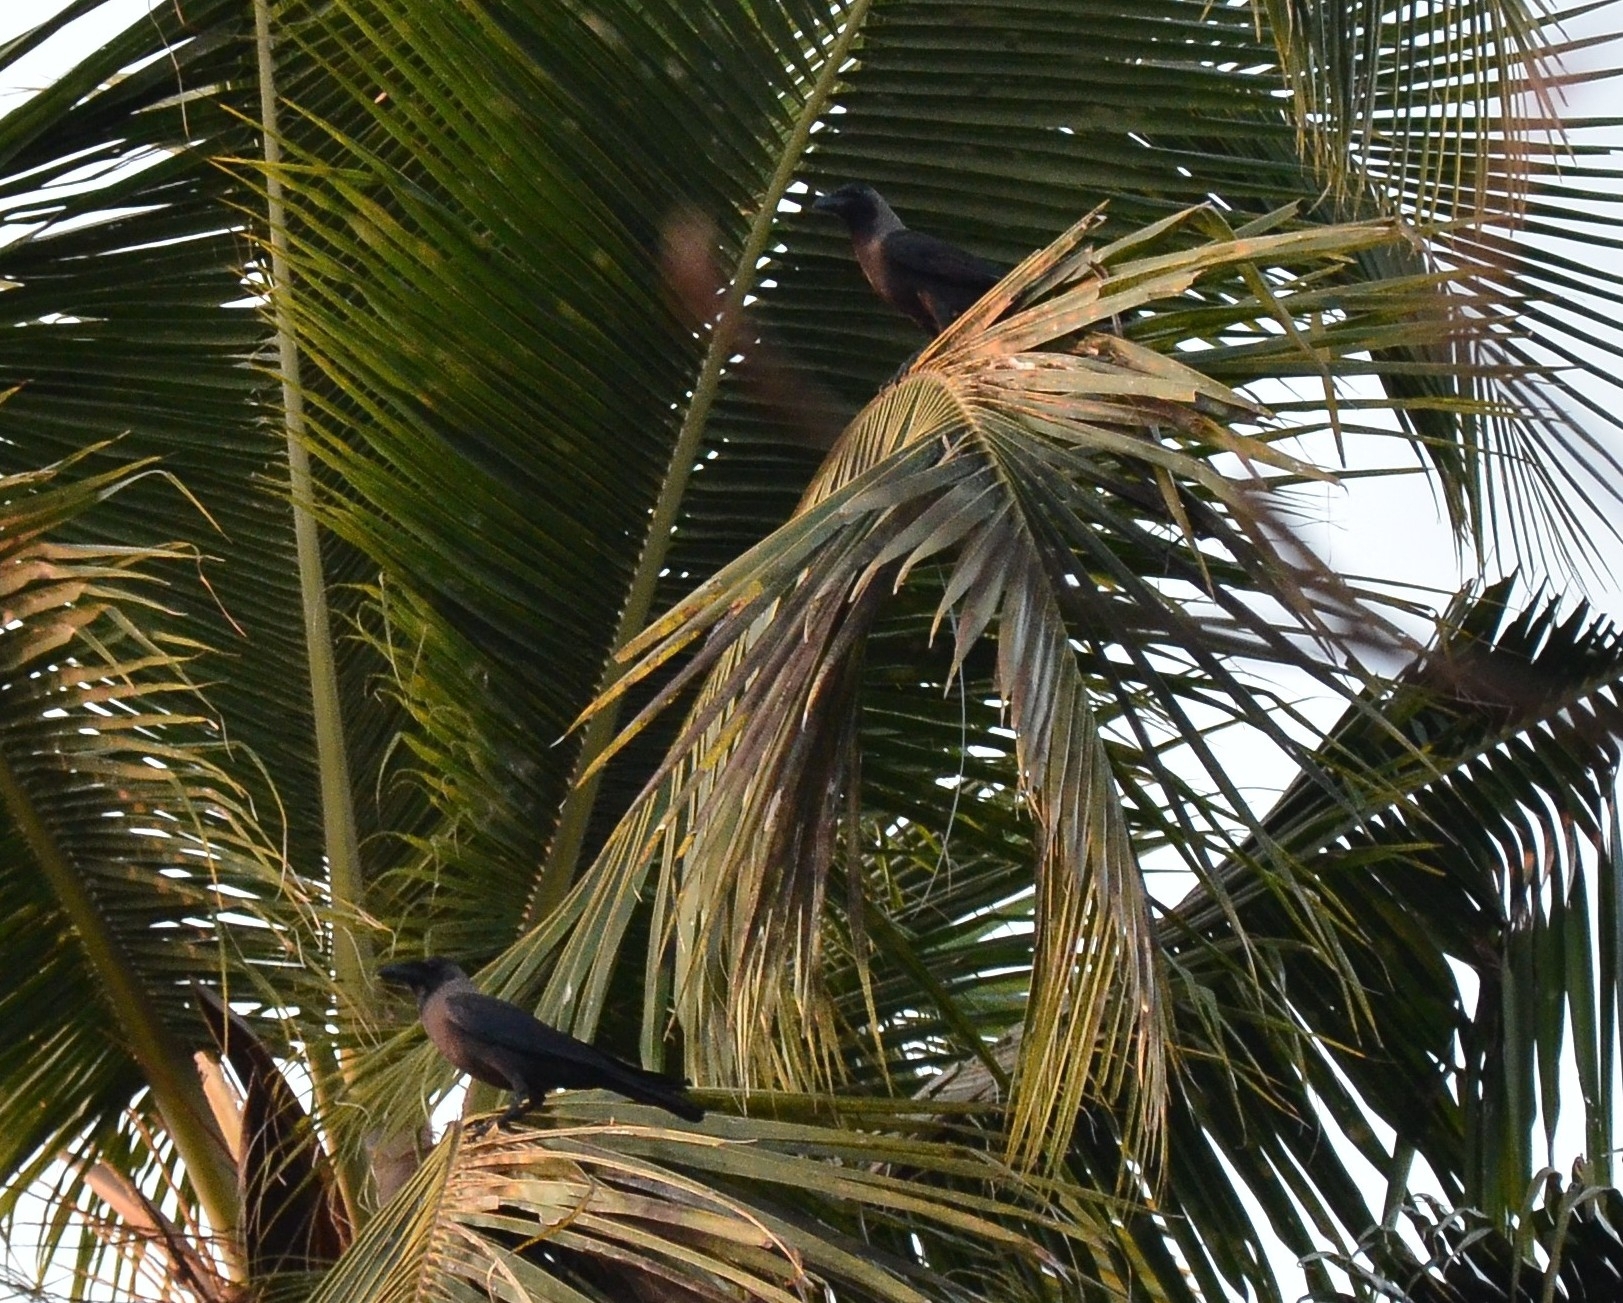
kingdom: Animalia
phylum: Chordata
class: Aves
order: Passeriformes
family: Corvidae
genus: Corvus
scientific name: Corvus splendens
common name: House crow
